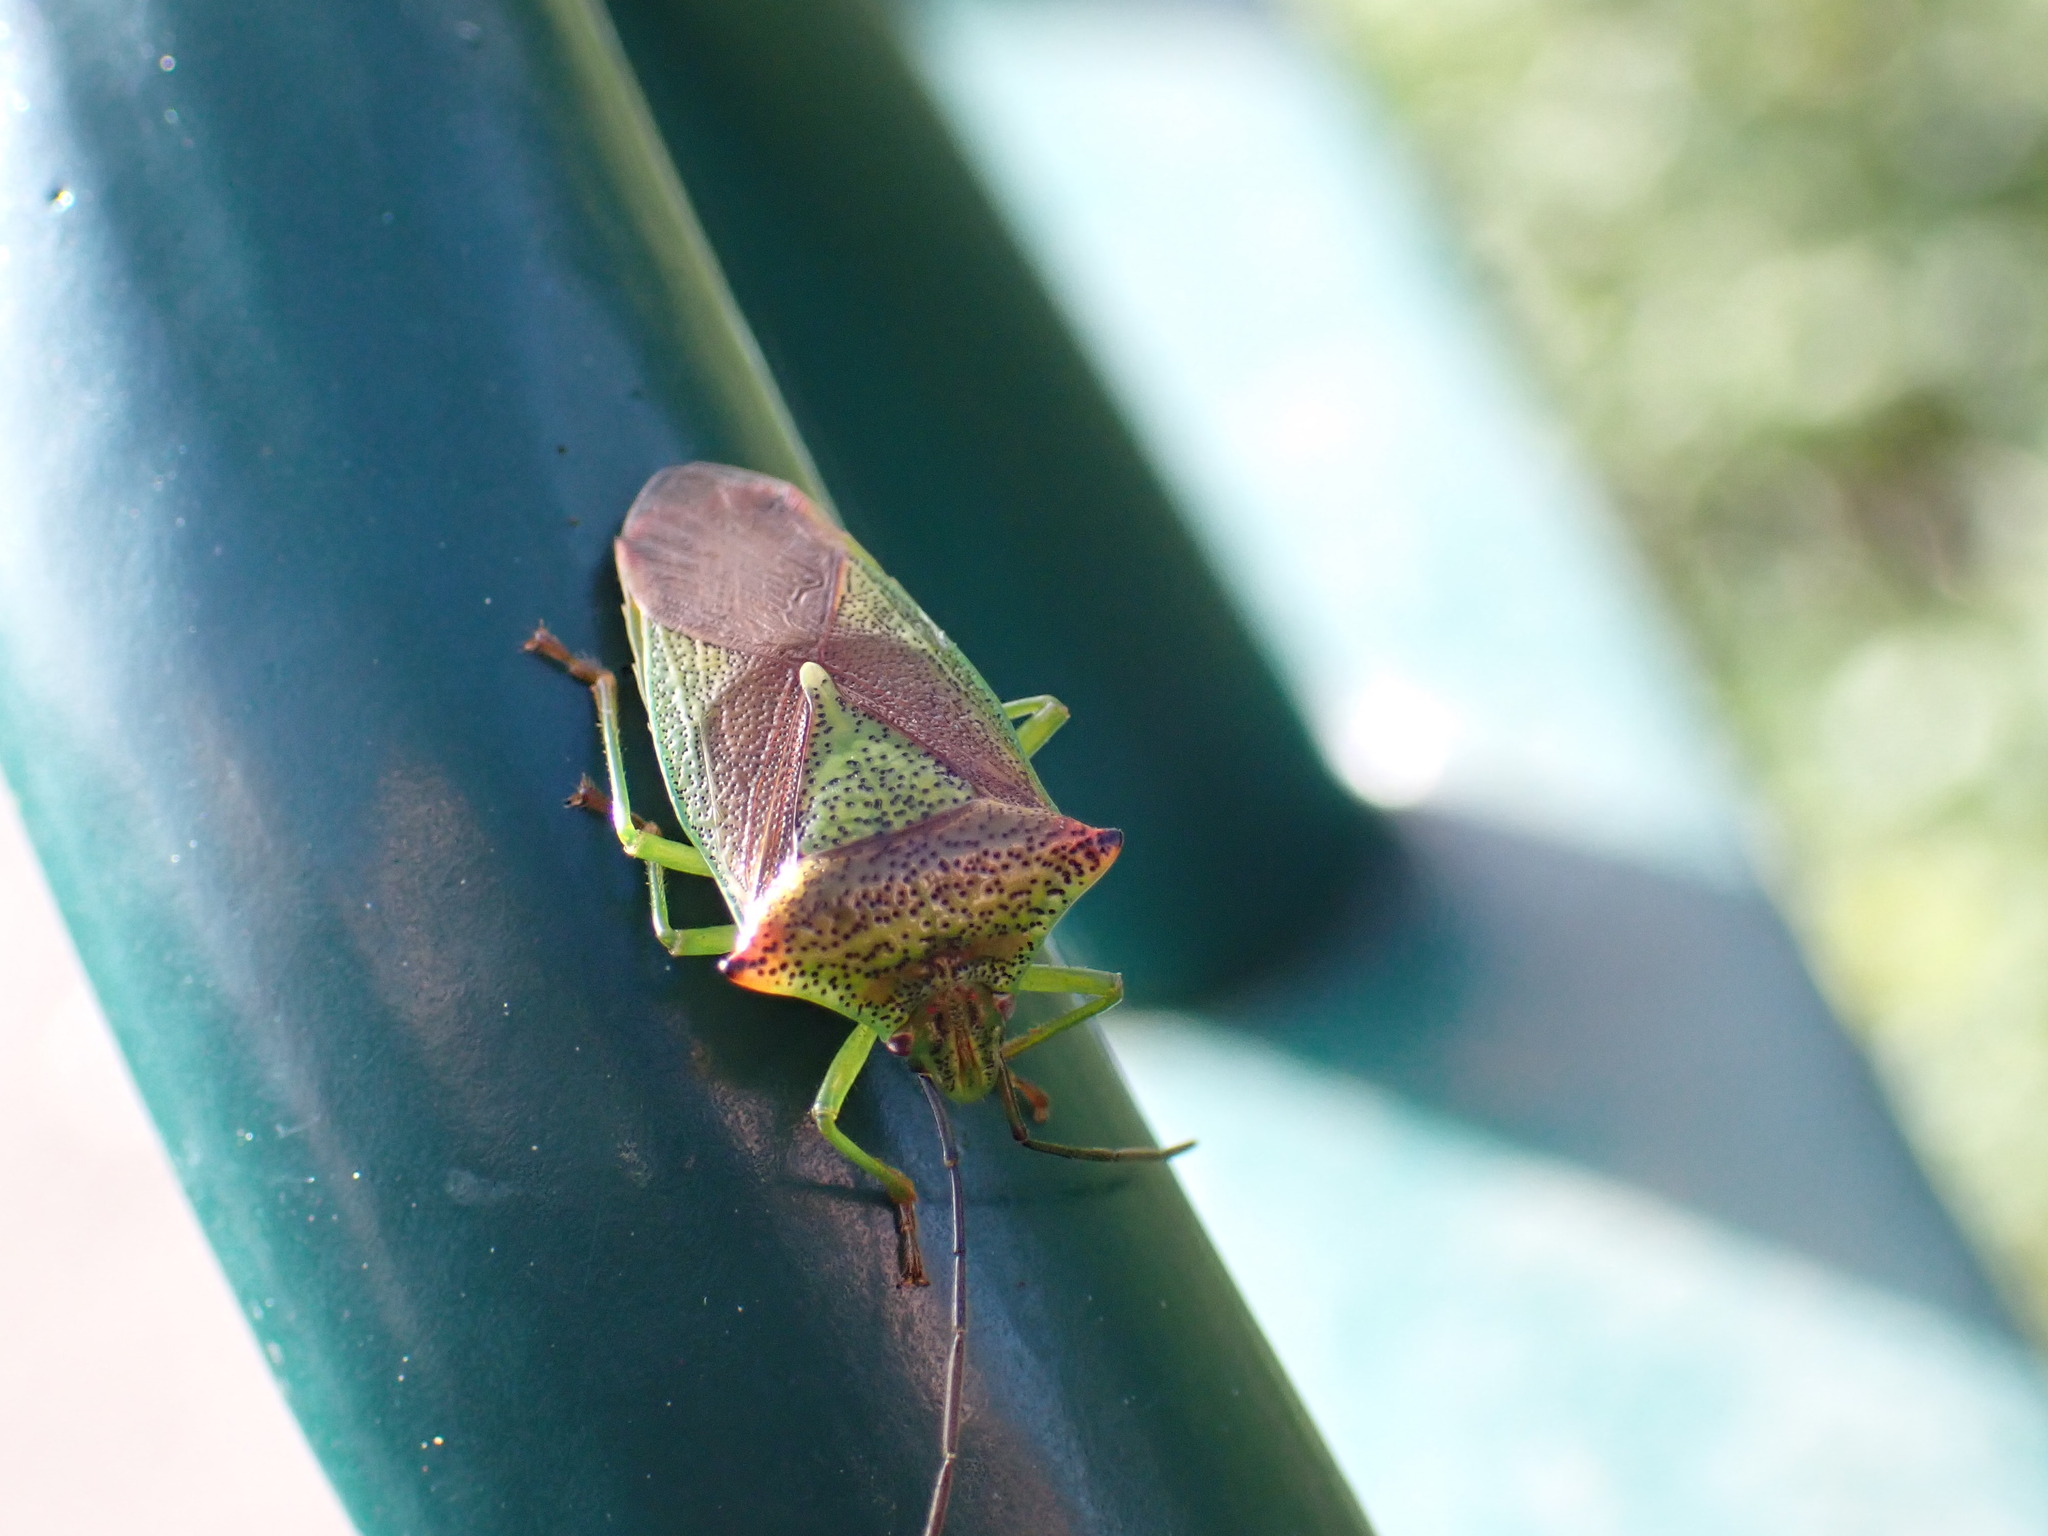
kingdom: Animalia
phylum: Arthropoda
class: Insecta
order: Hemiptera
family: Acanthosomatidae
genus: Acanthosoma
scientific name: Acanthosoma haemorrhoidale
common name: Hawthorn shieldbug
